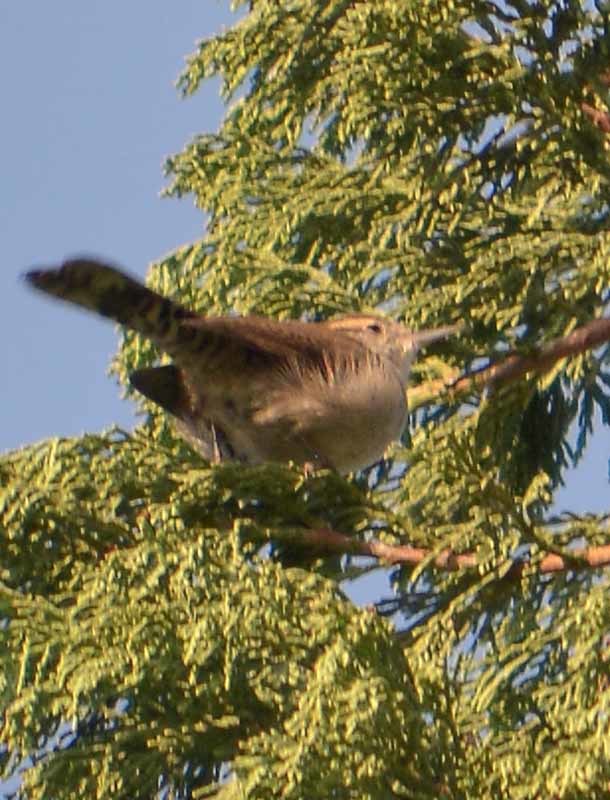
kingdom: Animalia
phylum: Chordata
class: Aves
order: Passeriformes
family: Troglodytidae
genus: Thryomanes
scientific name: Thryomanes bewickii
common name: Bewick's wren
